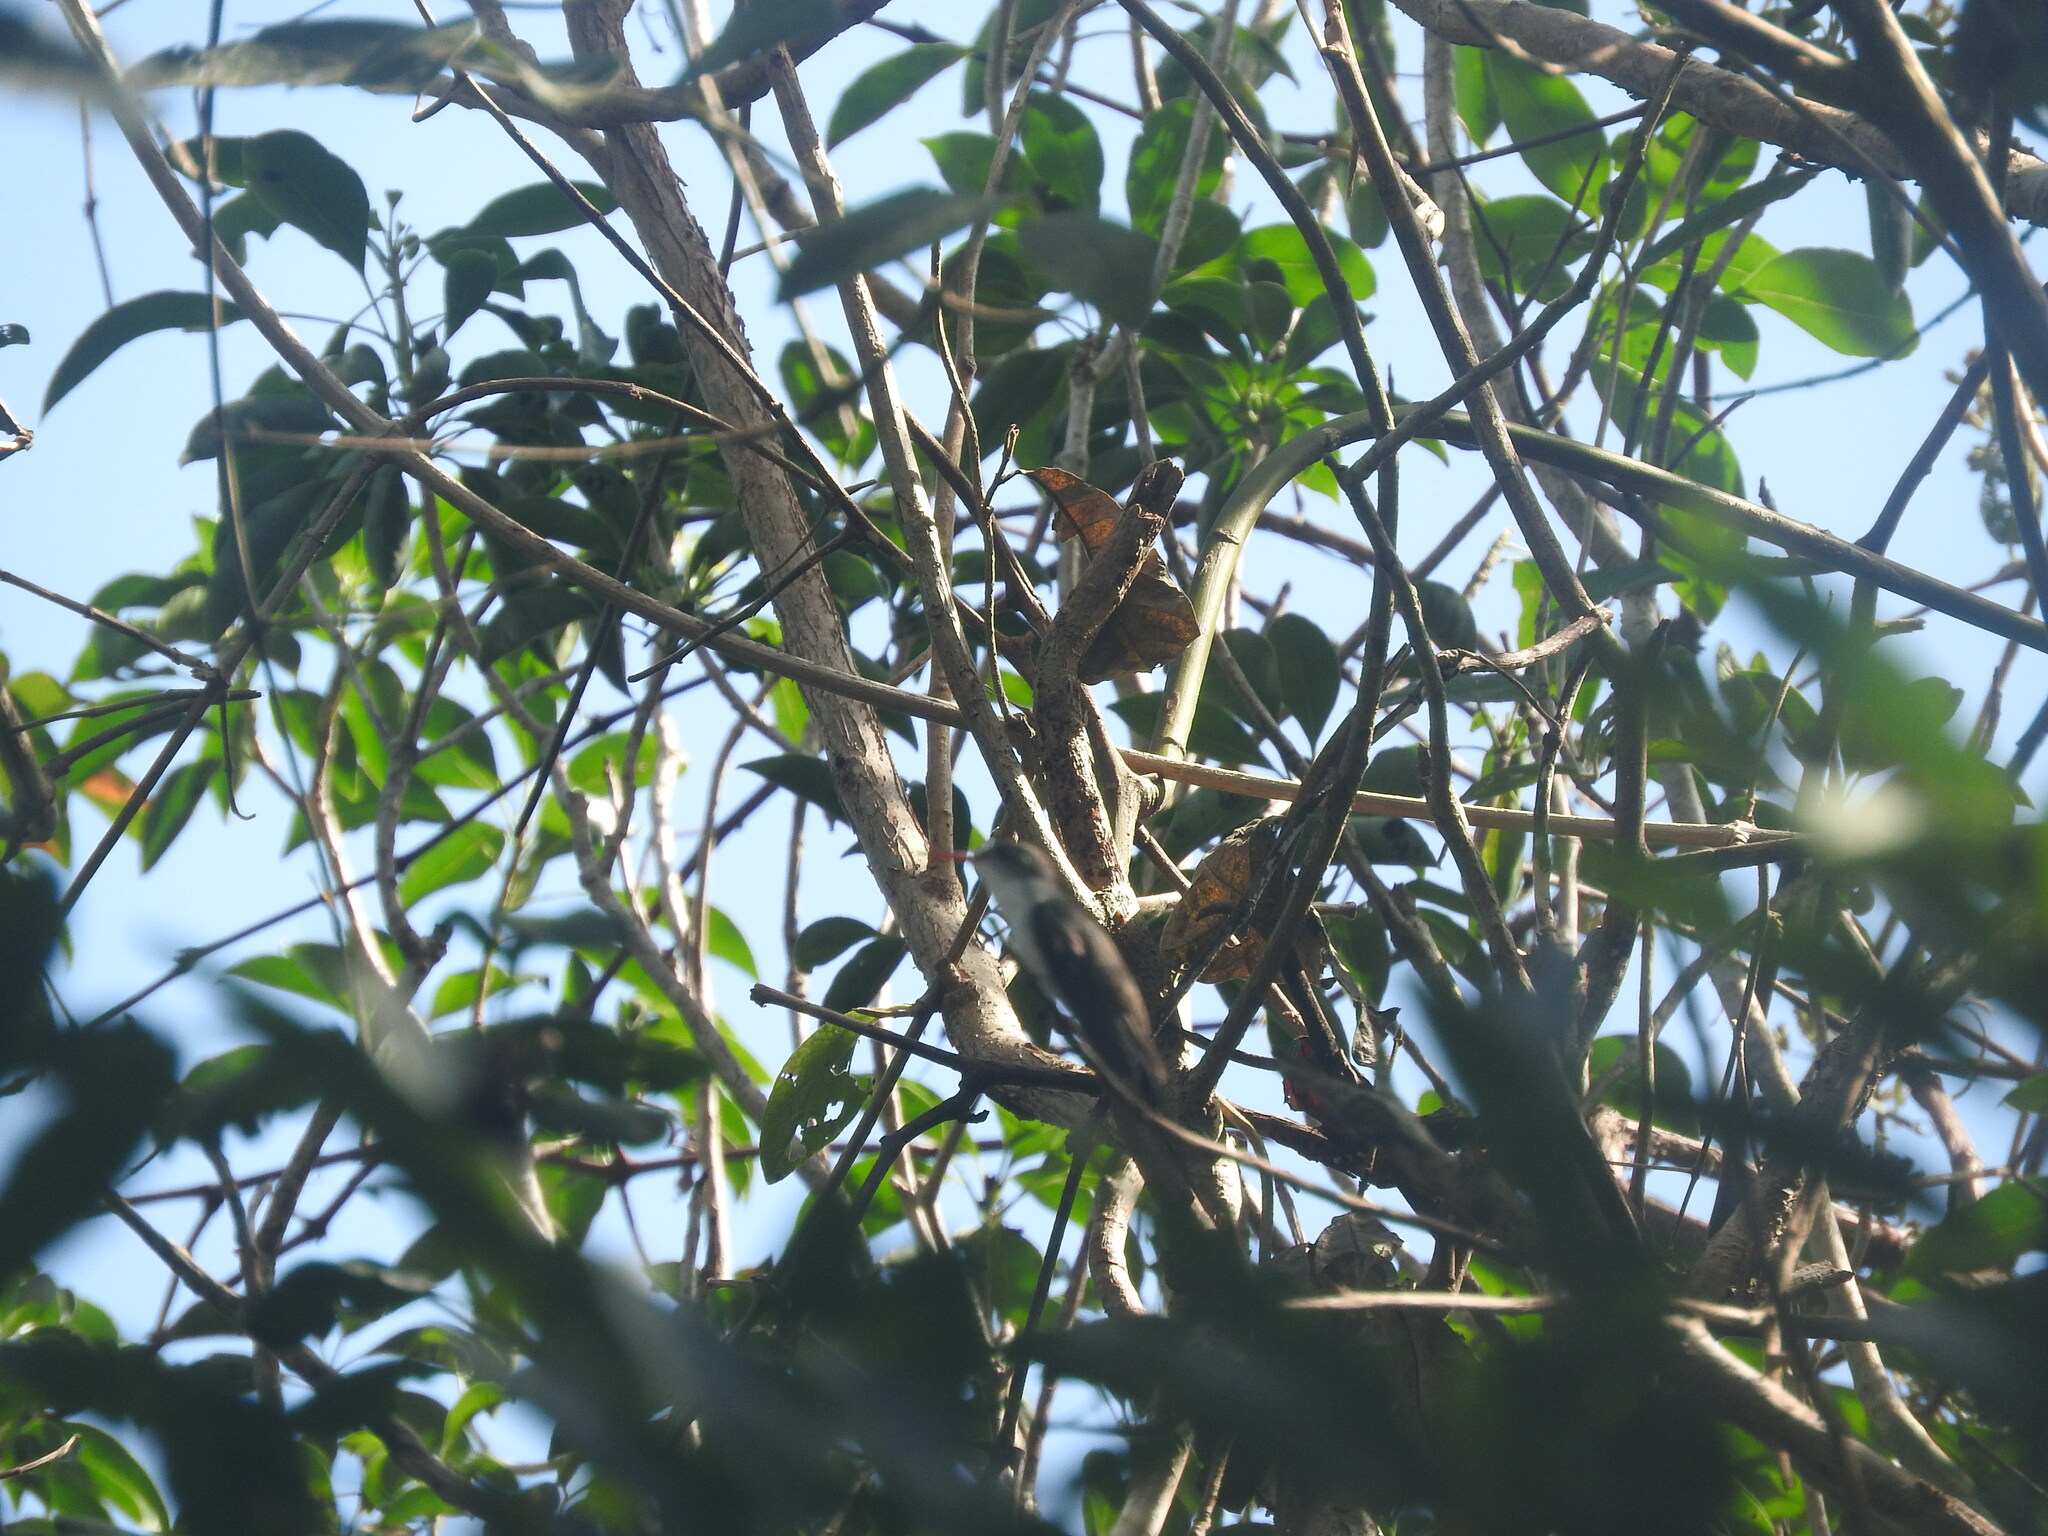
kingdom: Animalia
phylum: Chordata
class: Aves
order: Apodiformes
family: Trochilidae
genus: Chlorestes
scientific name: Chlorestes candida
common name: White-bellied emerald
